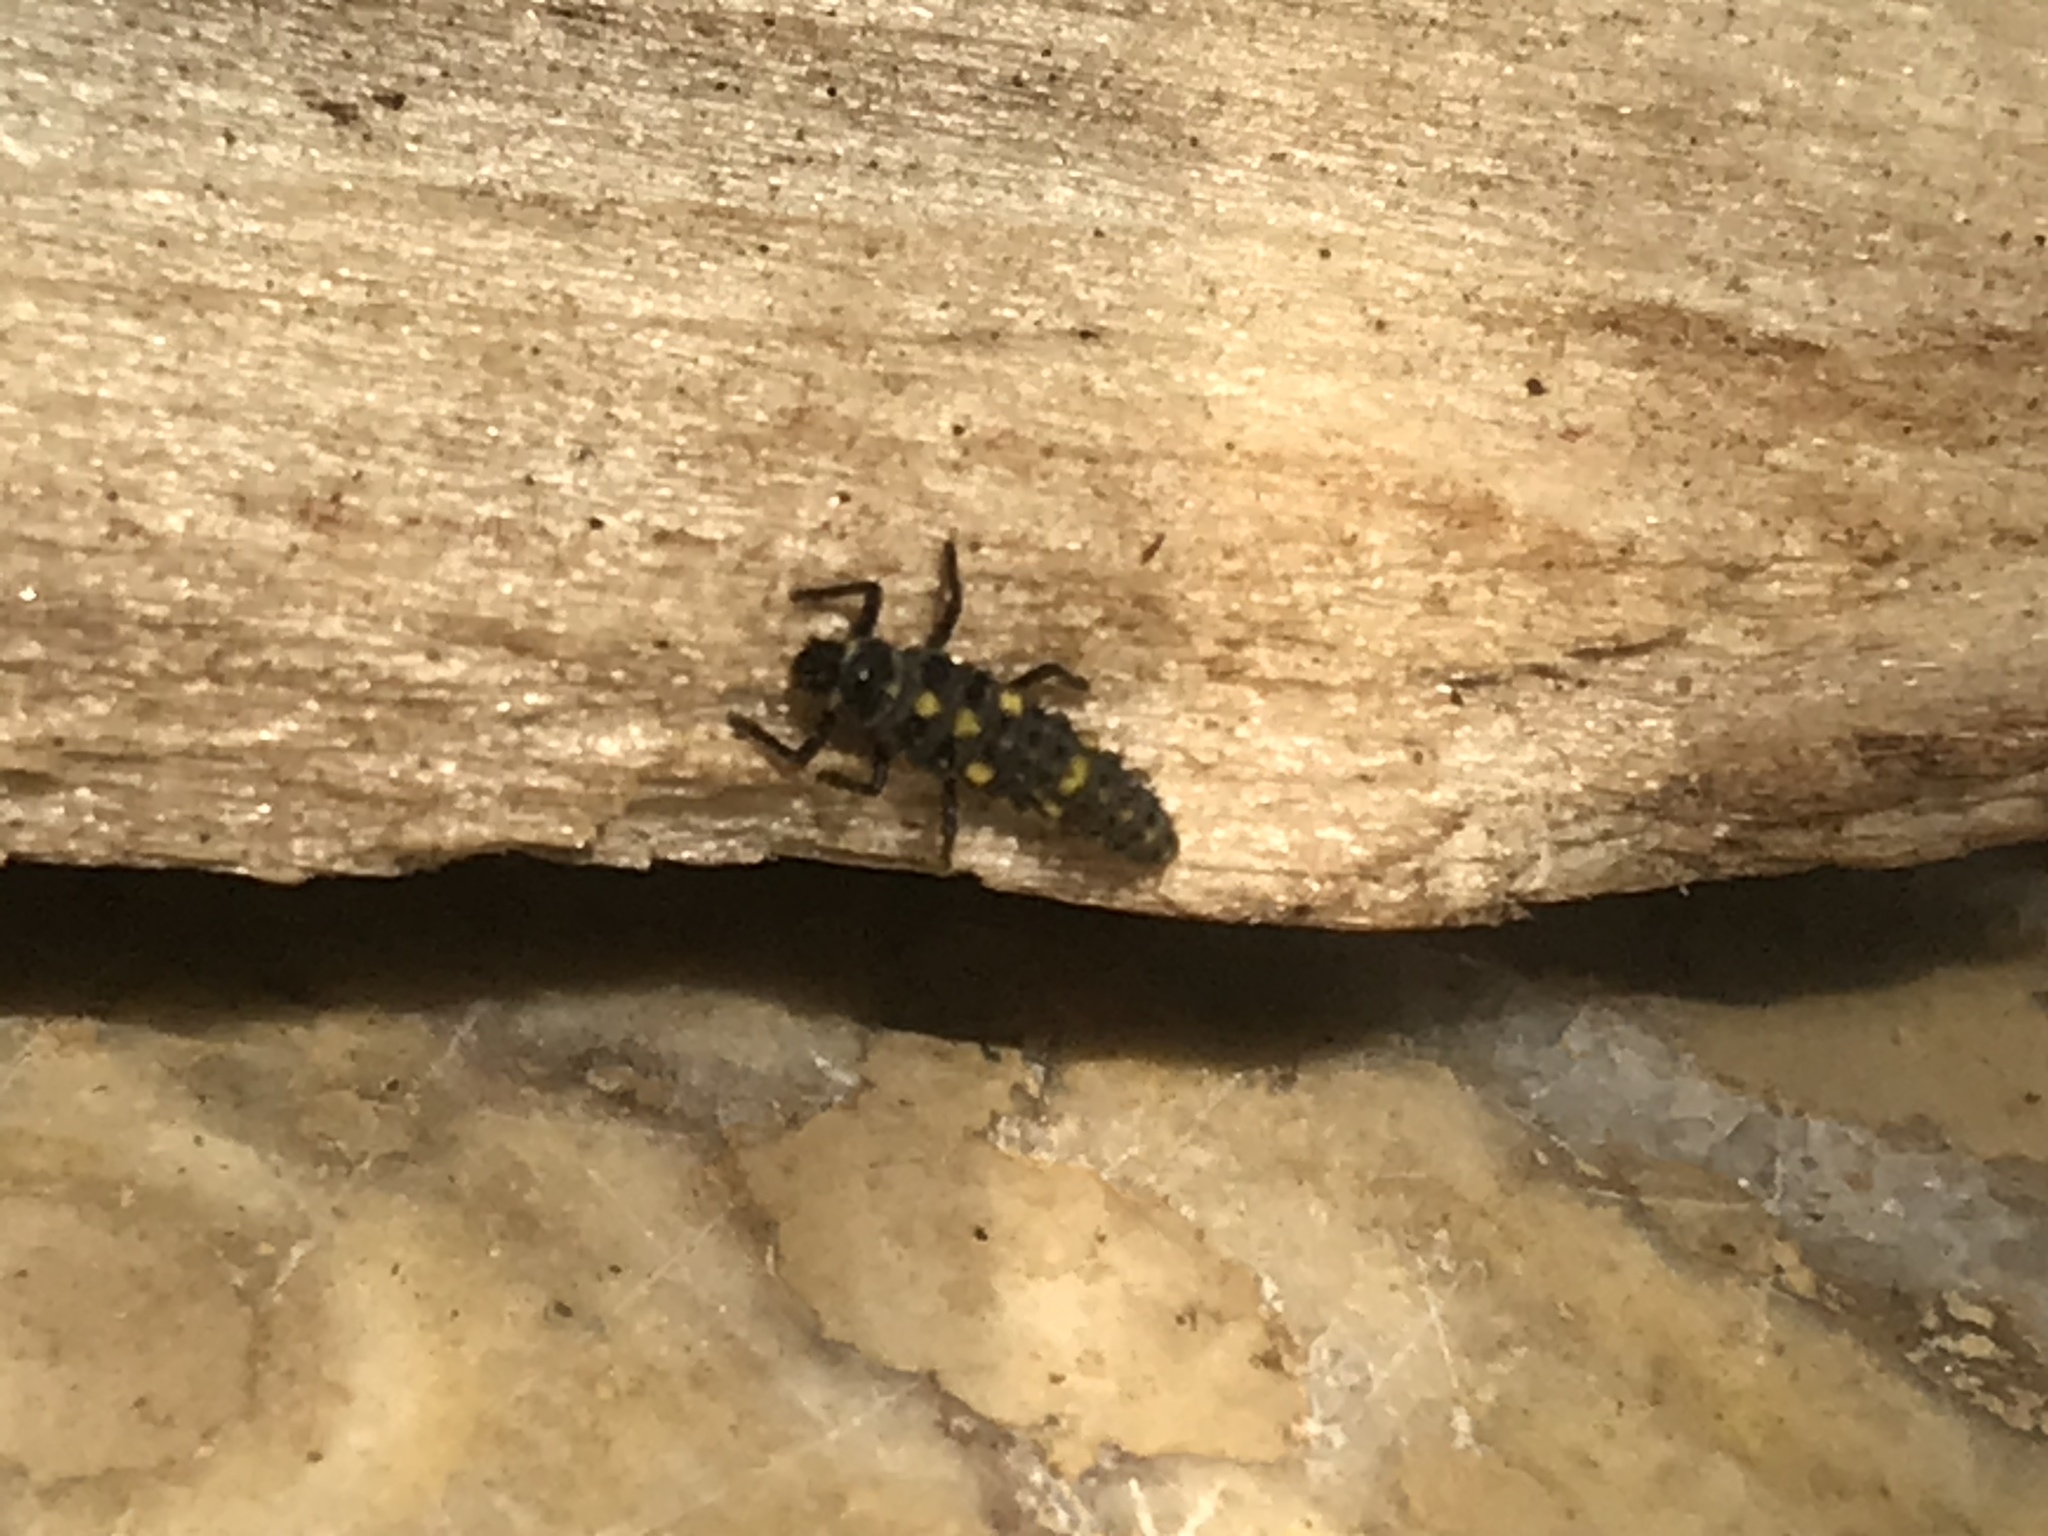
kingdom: Animalia
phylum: Arthropoda
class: Insecta
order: Coleoptera
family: Coccinellidae
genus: Olla
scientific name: Olla v-nigrum
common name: Ashy gray lady beetle
